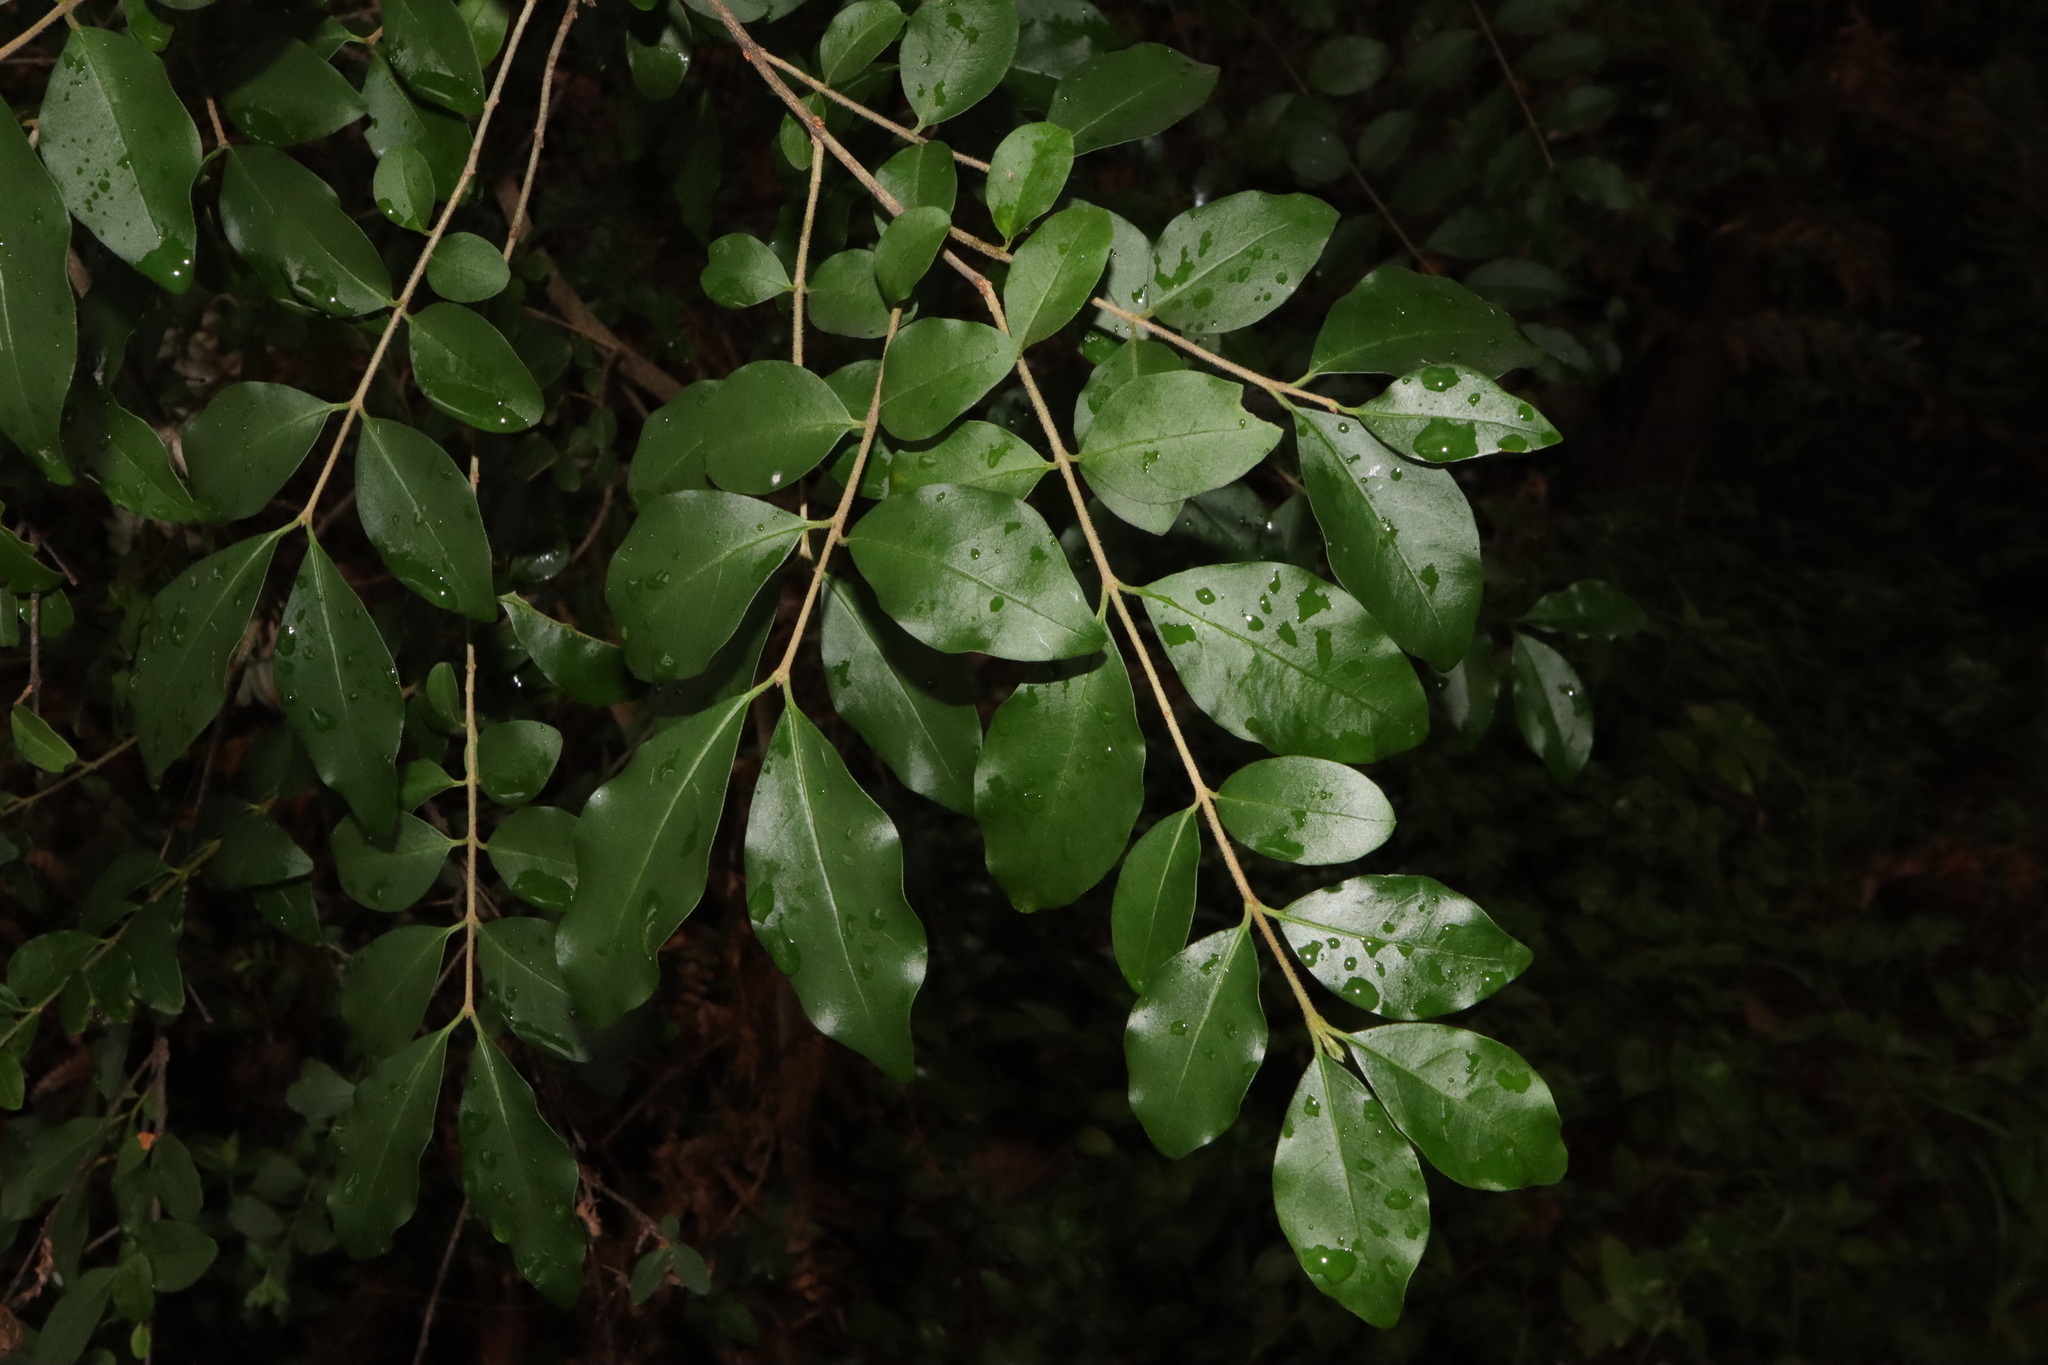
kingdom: Plantae
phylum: Tracheophyta
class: Magnoliopsida
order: Lamiales
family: Oleaceae
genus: Ligustrum
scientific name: Ligustrum sinense
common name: Chinese privet
